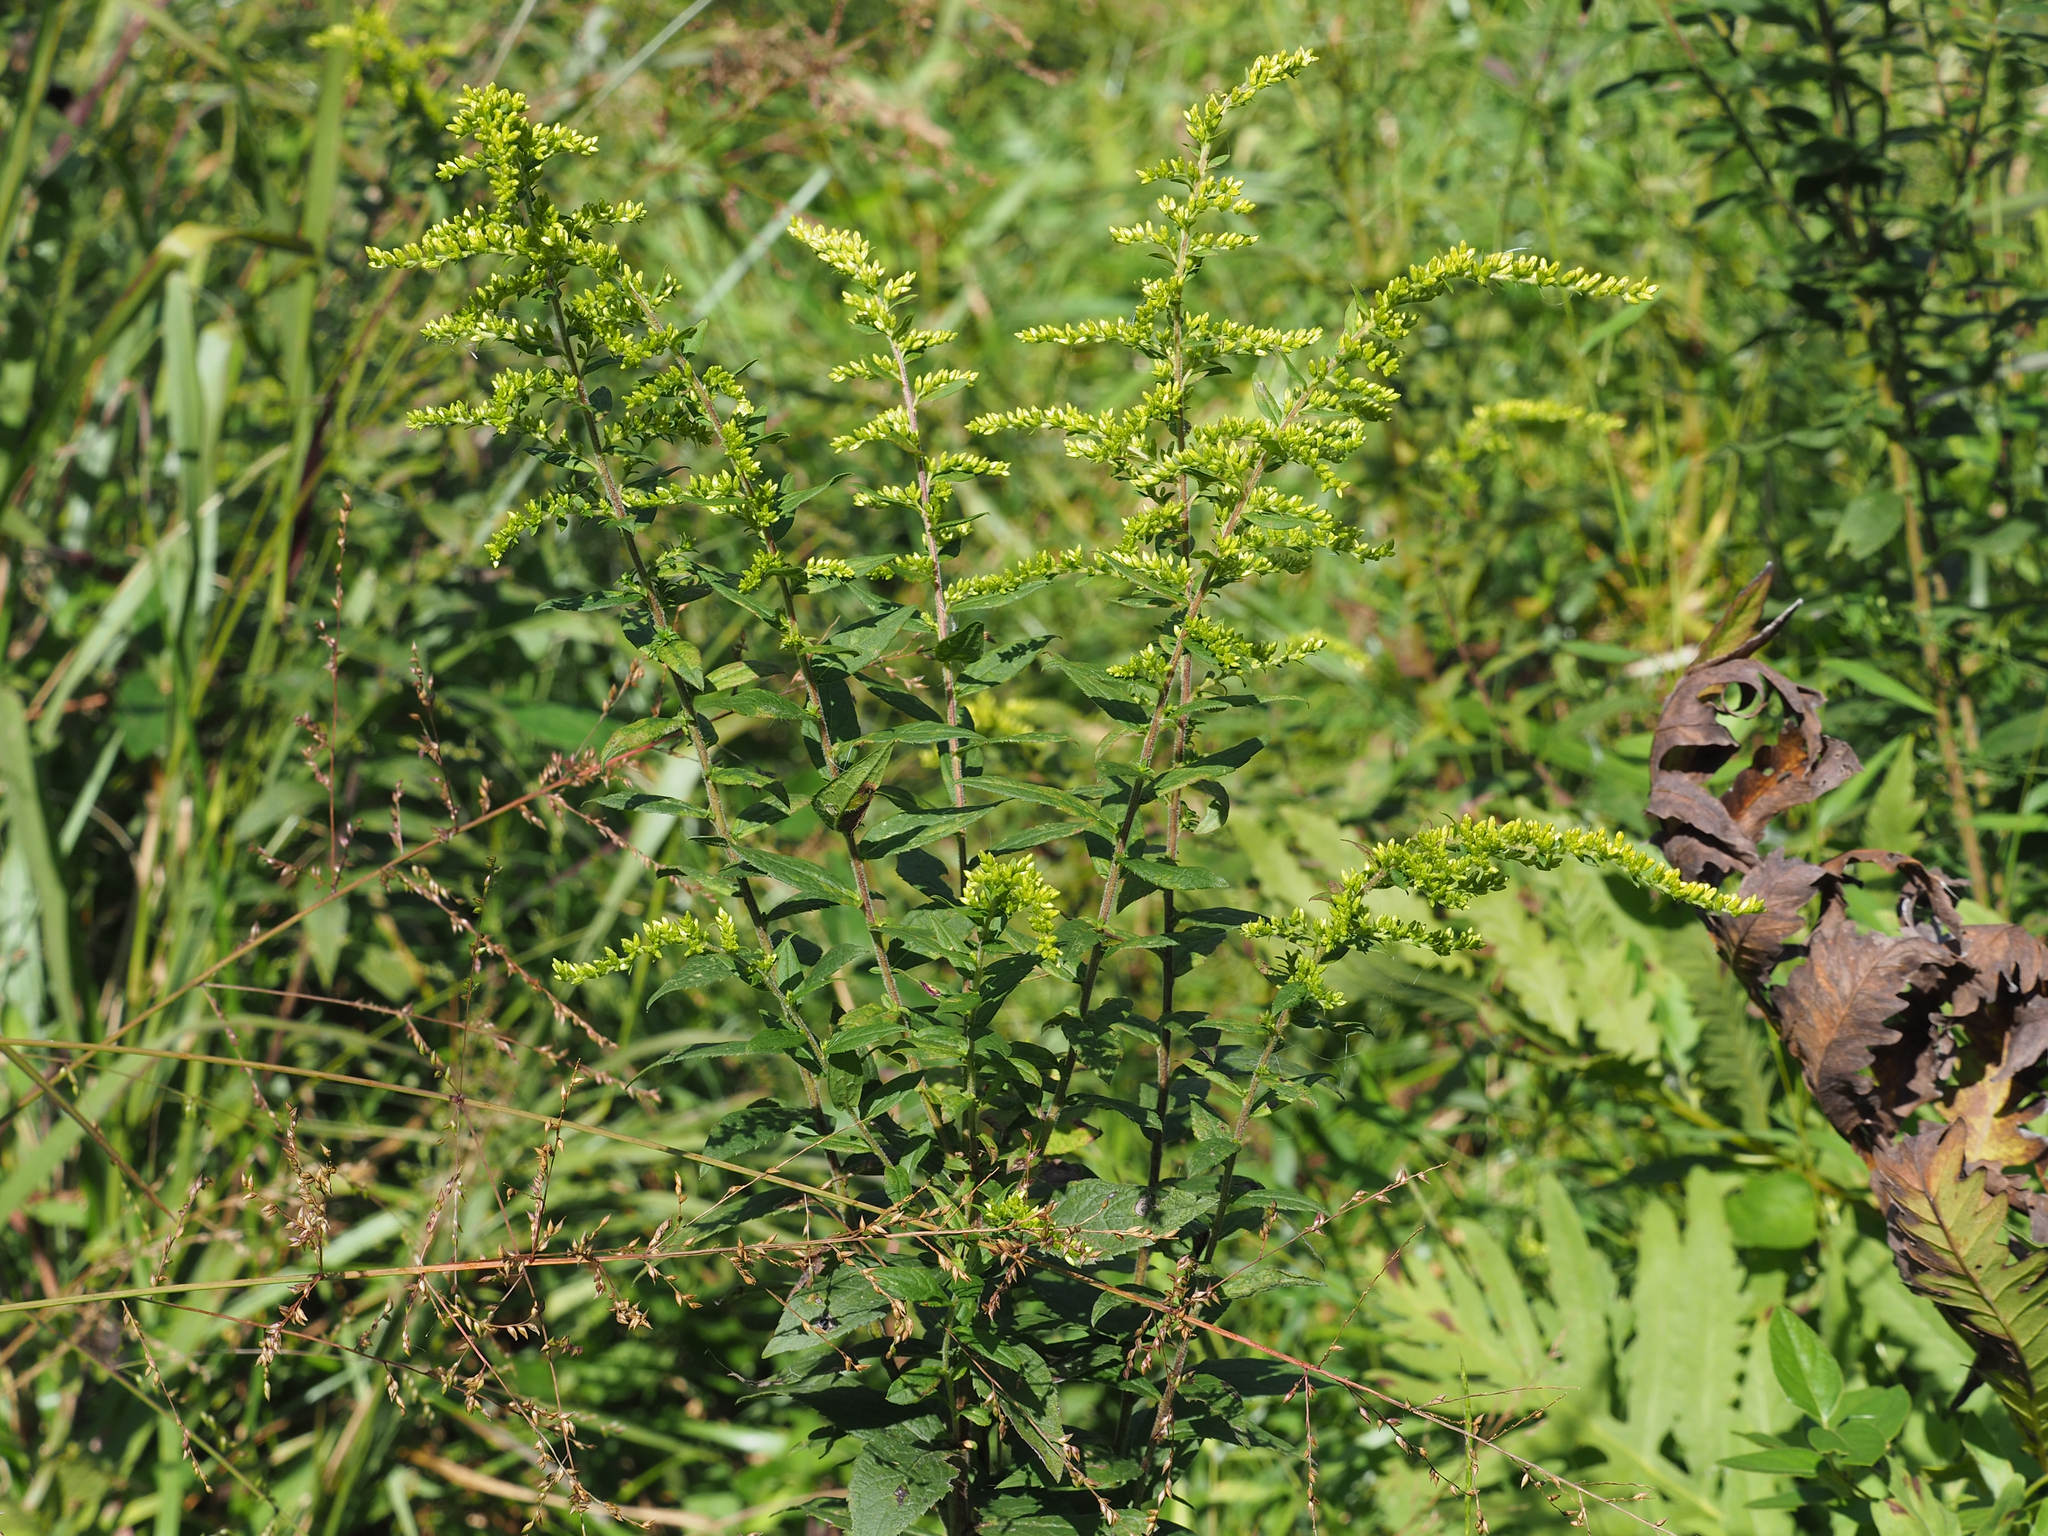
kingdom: Plantae
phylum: Tracheophyta
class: Magnoliopsida
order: Asterales
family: Asteraceae
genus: Solidago
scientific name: Solidago rugosa
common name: Rough-stemmed goldenrod
